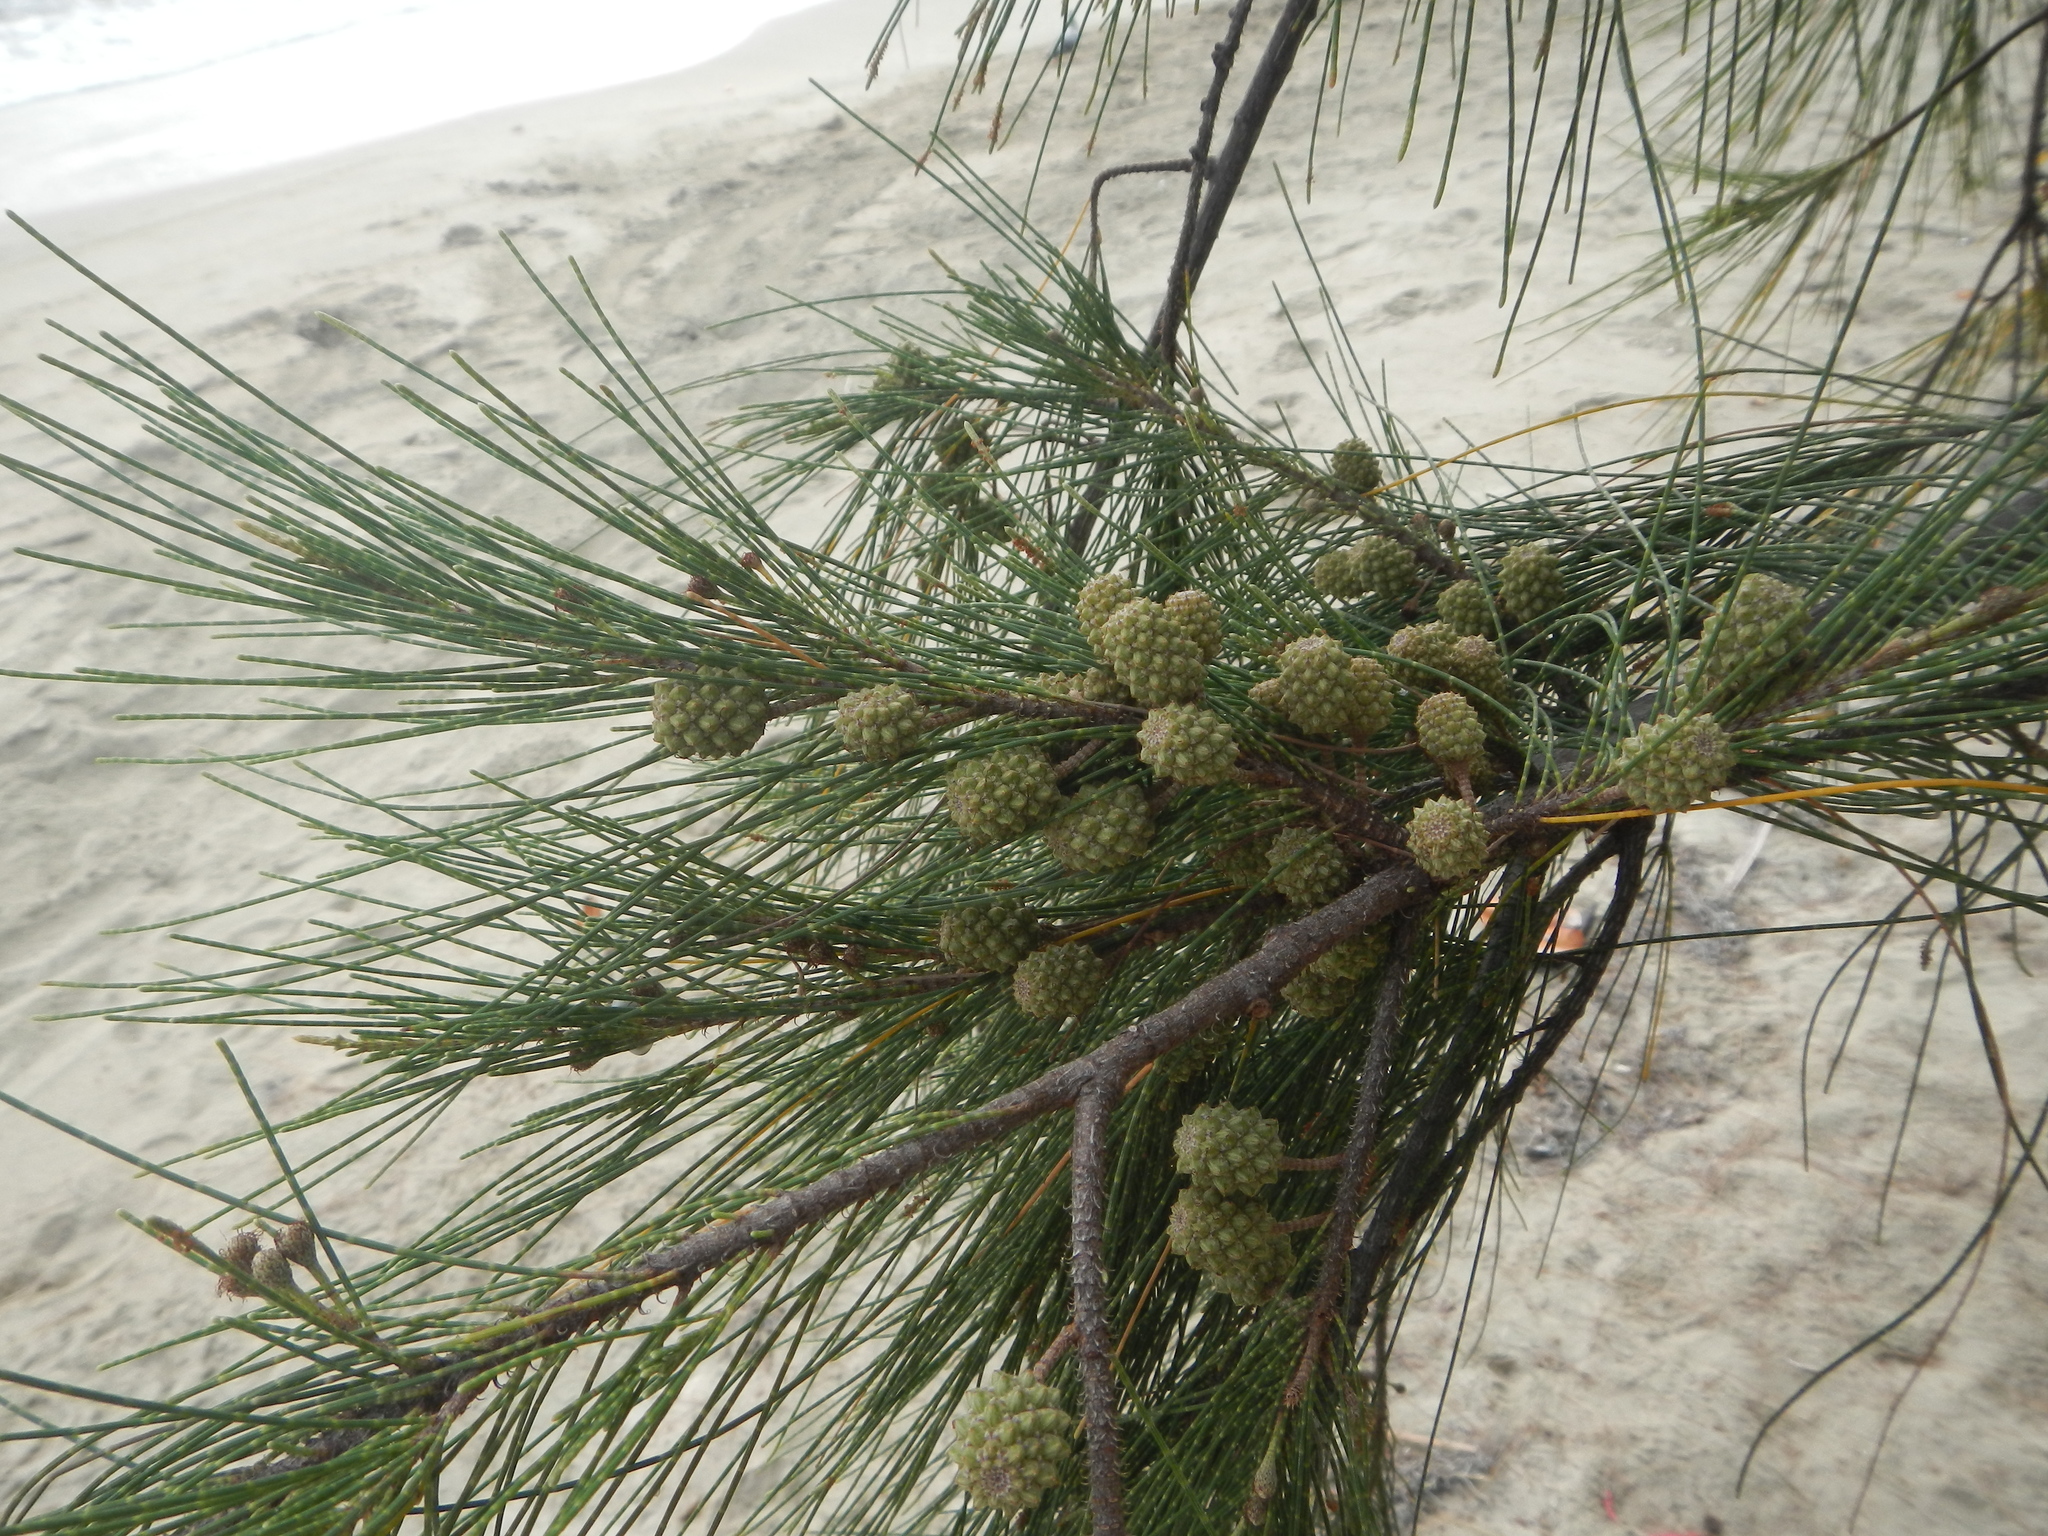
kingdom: Plantae
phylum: Tracheophyta
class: Magnoliopsida
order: Fagales
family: Casuarinaceae
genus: Casuarina
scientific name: Casuarina equisetifolia
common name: Beach sheoak
